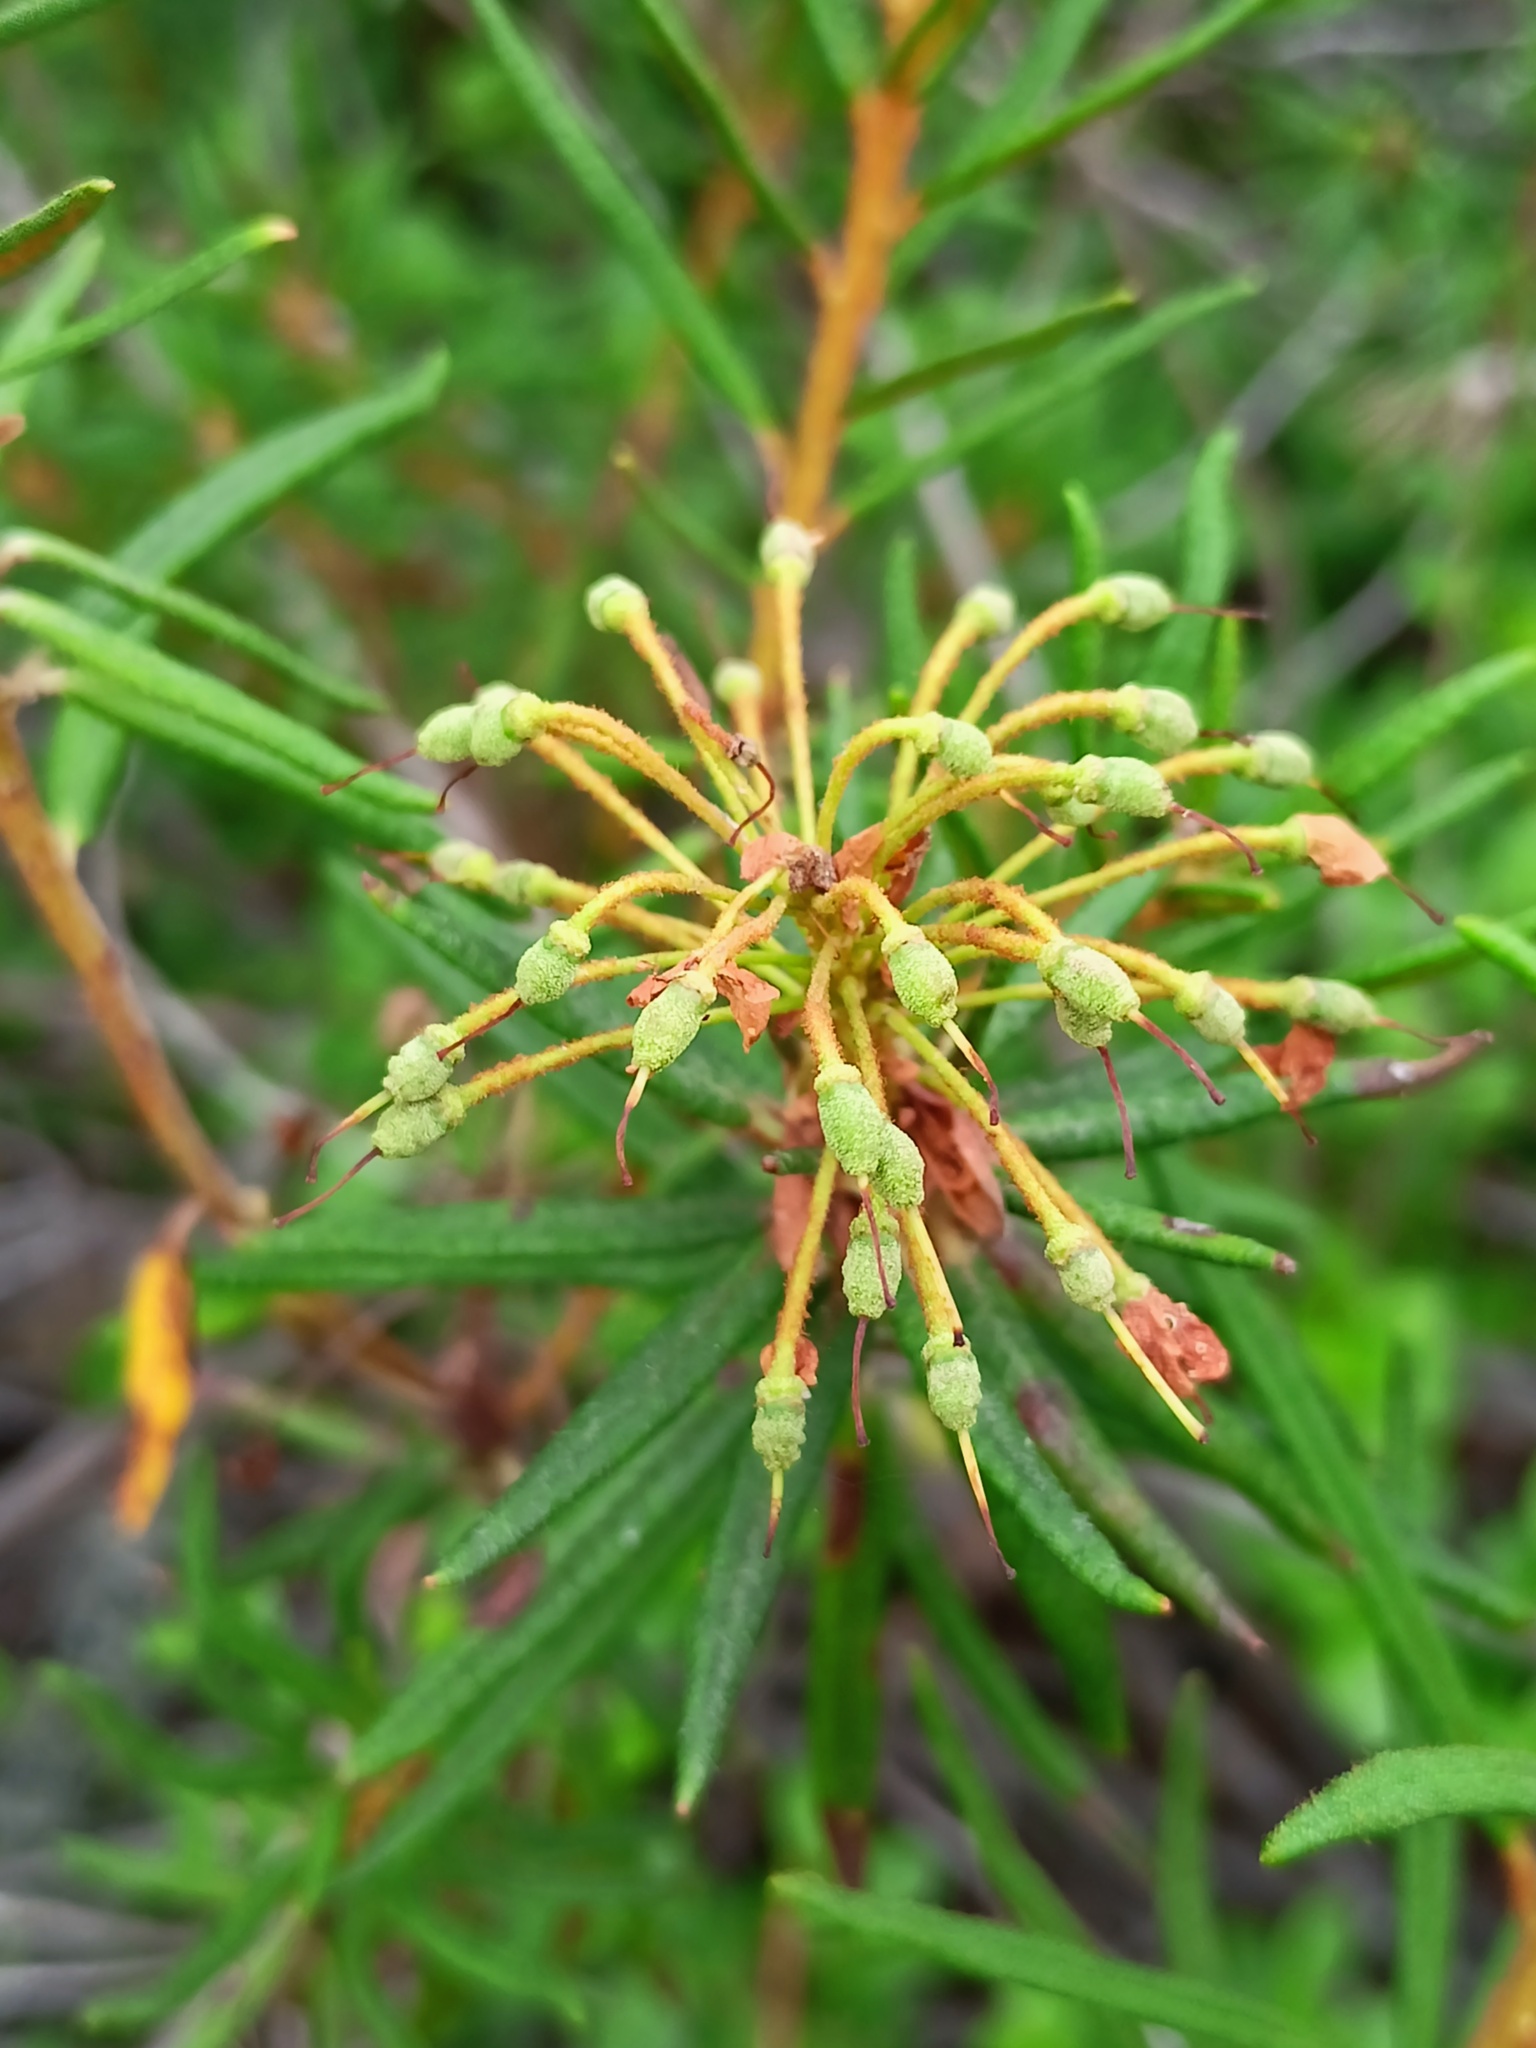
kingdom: Plantae
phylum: Tracheophyta
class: Magnoliopsida
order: Ericales
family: Ericaceae
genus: Rhododendron
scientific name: Rhododendron tomentosum
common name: Marsh labrador tea
